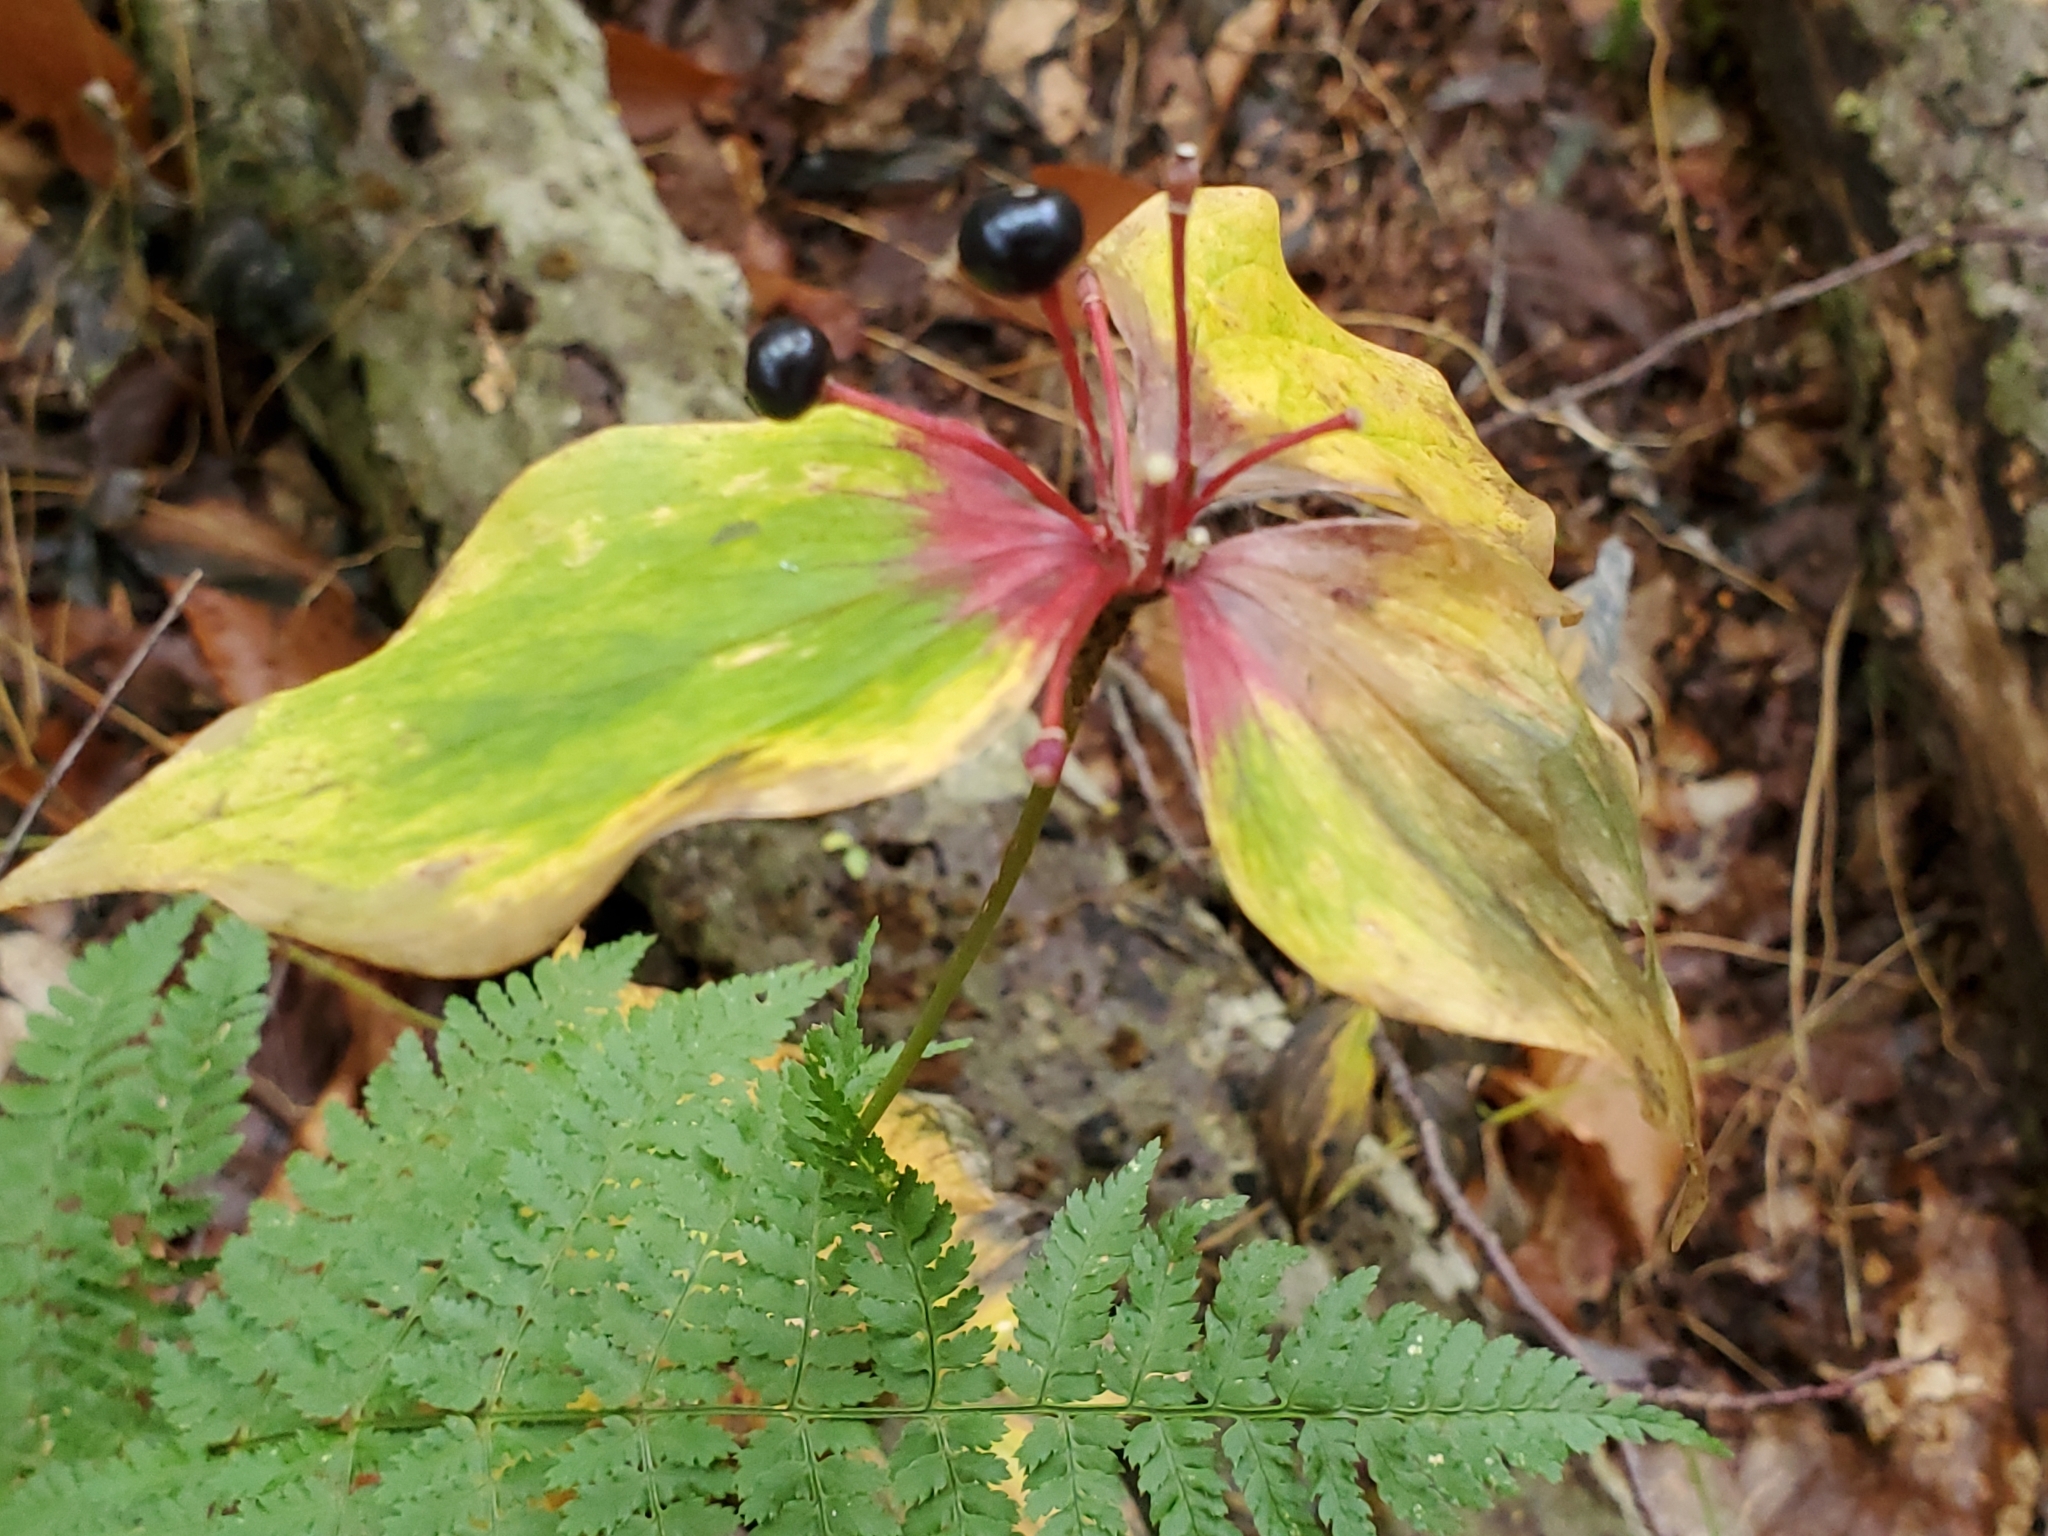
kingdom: Plantae
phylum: Tracheophyta
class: Liliopsida
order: Liliales
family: Liliaceae
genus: Medeola
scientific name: Medeola virginiana
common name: Indian cucumber-root
